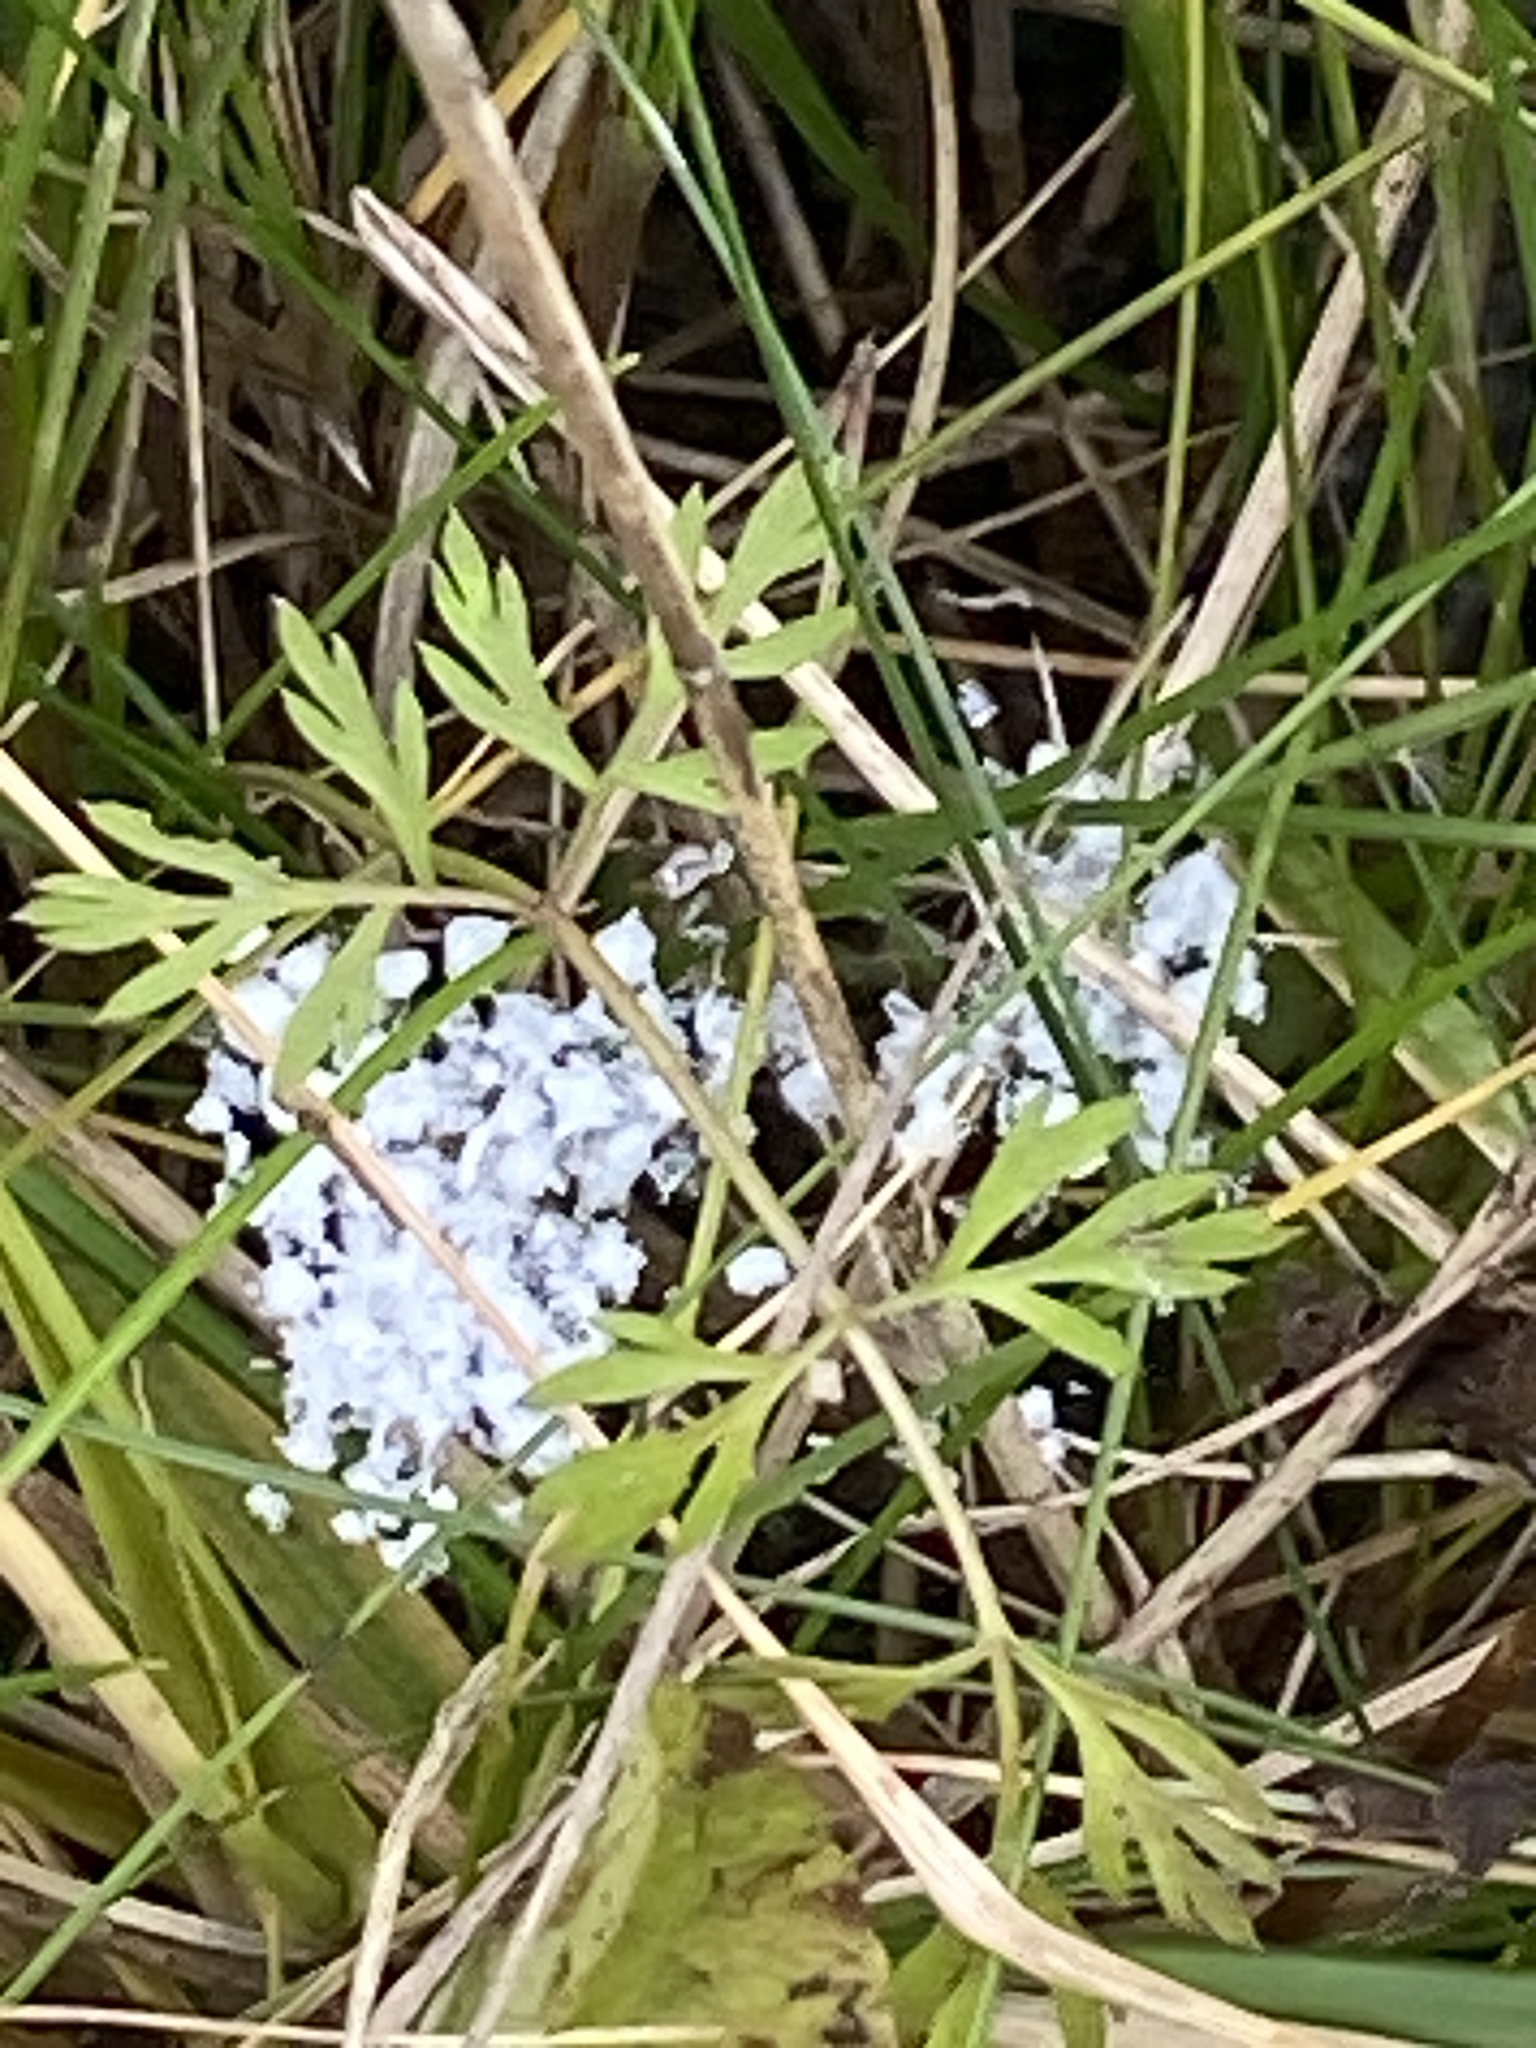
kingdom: Plantae
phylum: Tracheophyta
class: Magnoliopsida
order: Apiales
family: Apiaceae
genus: Daucus
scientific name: Daucus carota
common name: Wild carrot
